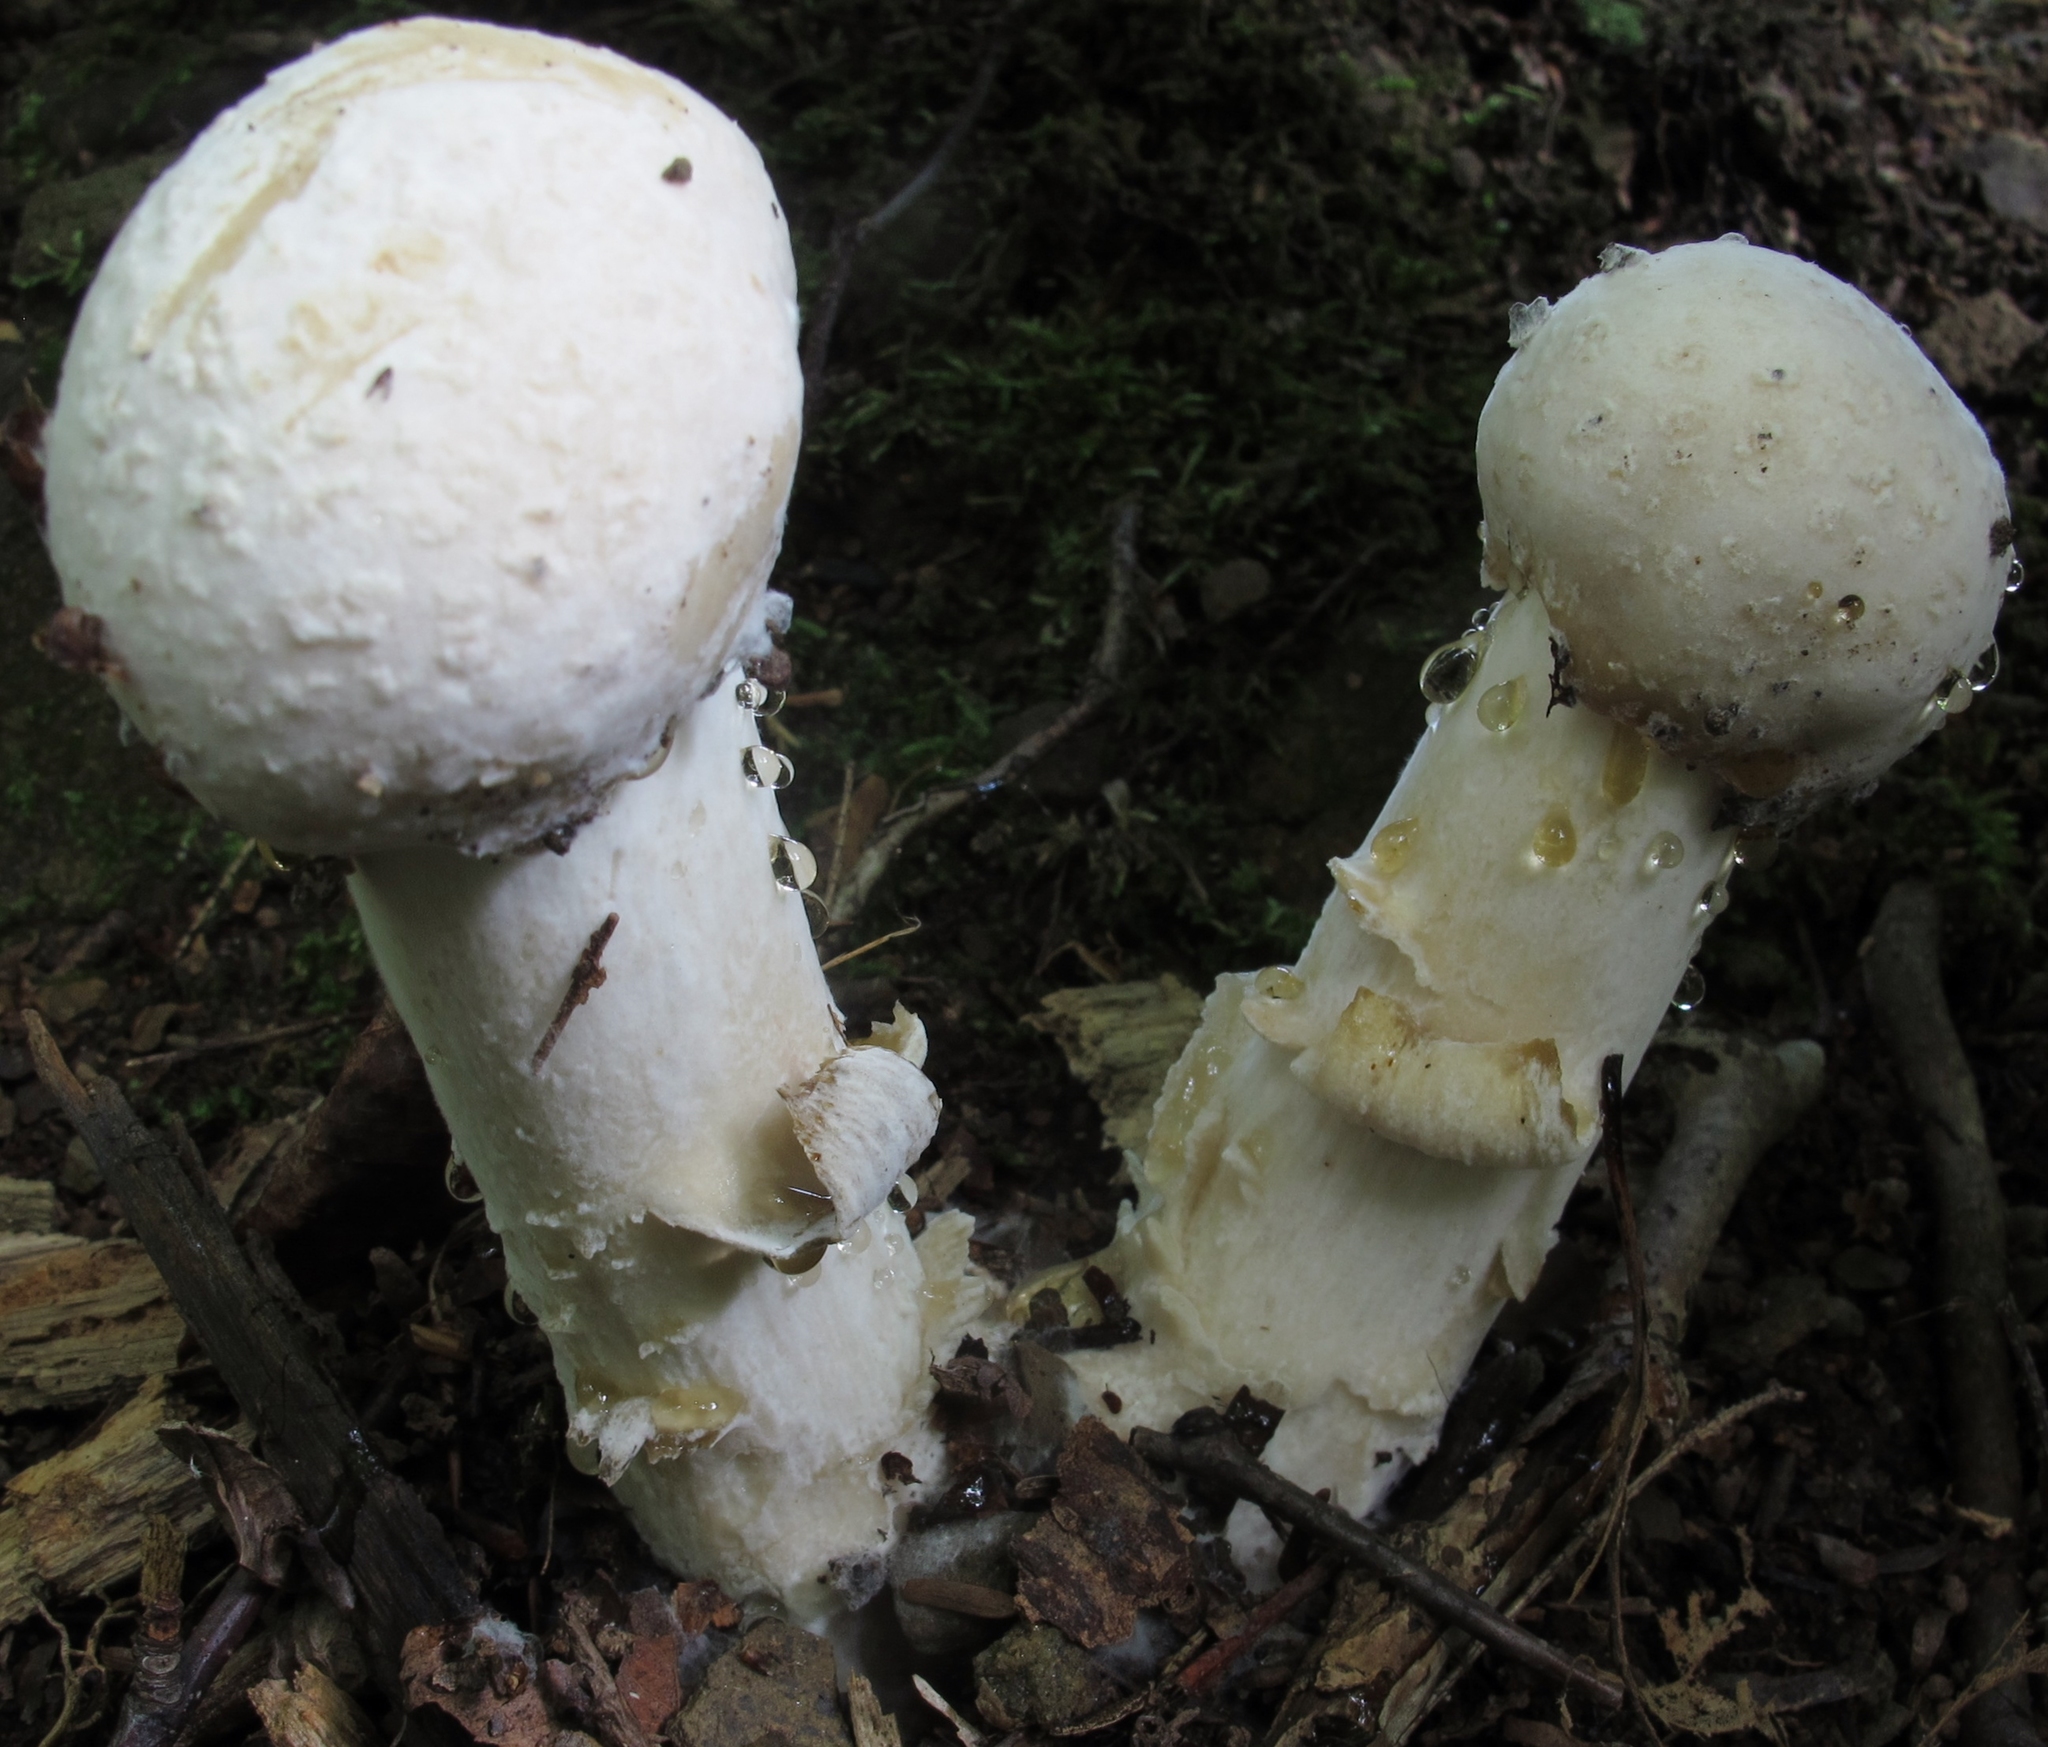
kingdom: Fungi
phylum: Ascomycota
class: Sordariomycetes
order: Hypocreales
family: Hypocreaceae
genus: Hypomyces
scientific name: Hypomyces hyalinus
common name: Amanita mold
